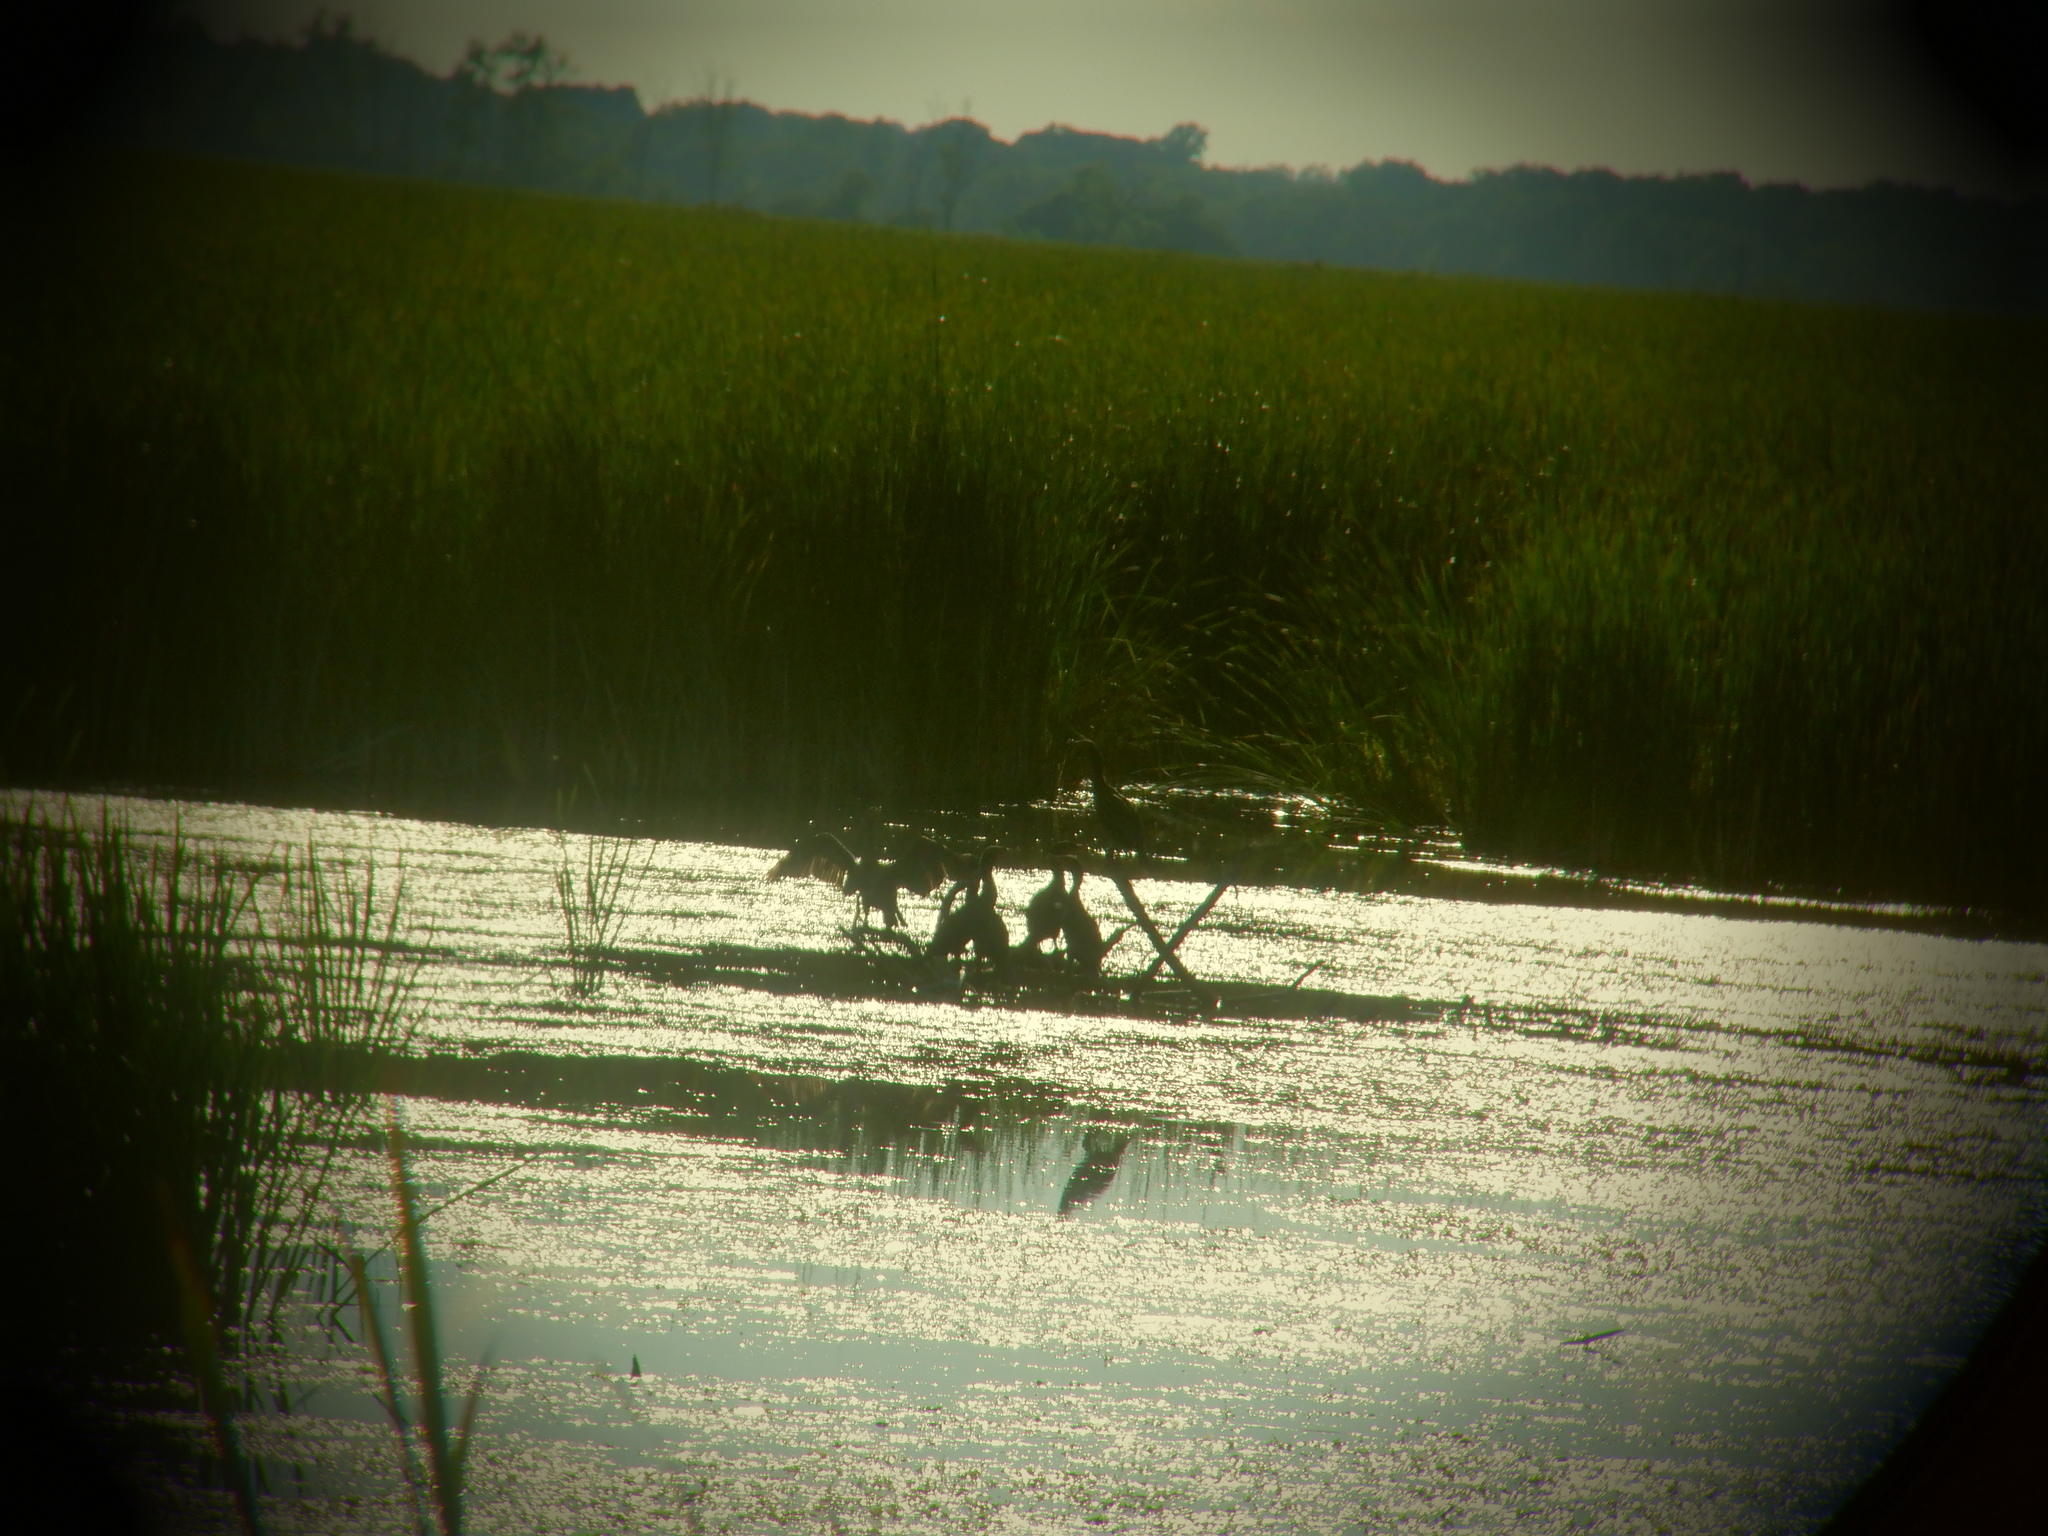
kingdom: Animalia
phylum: Chordata
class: Aves
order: Suliformes
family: Phalacrocoracidae
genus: Phalacrocorax
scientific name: Phalacrocorax auritus
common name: Double-crested cormorant
